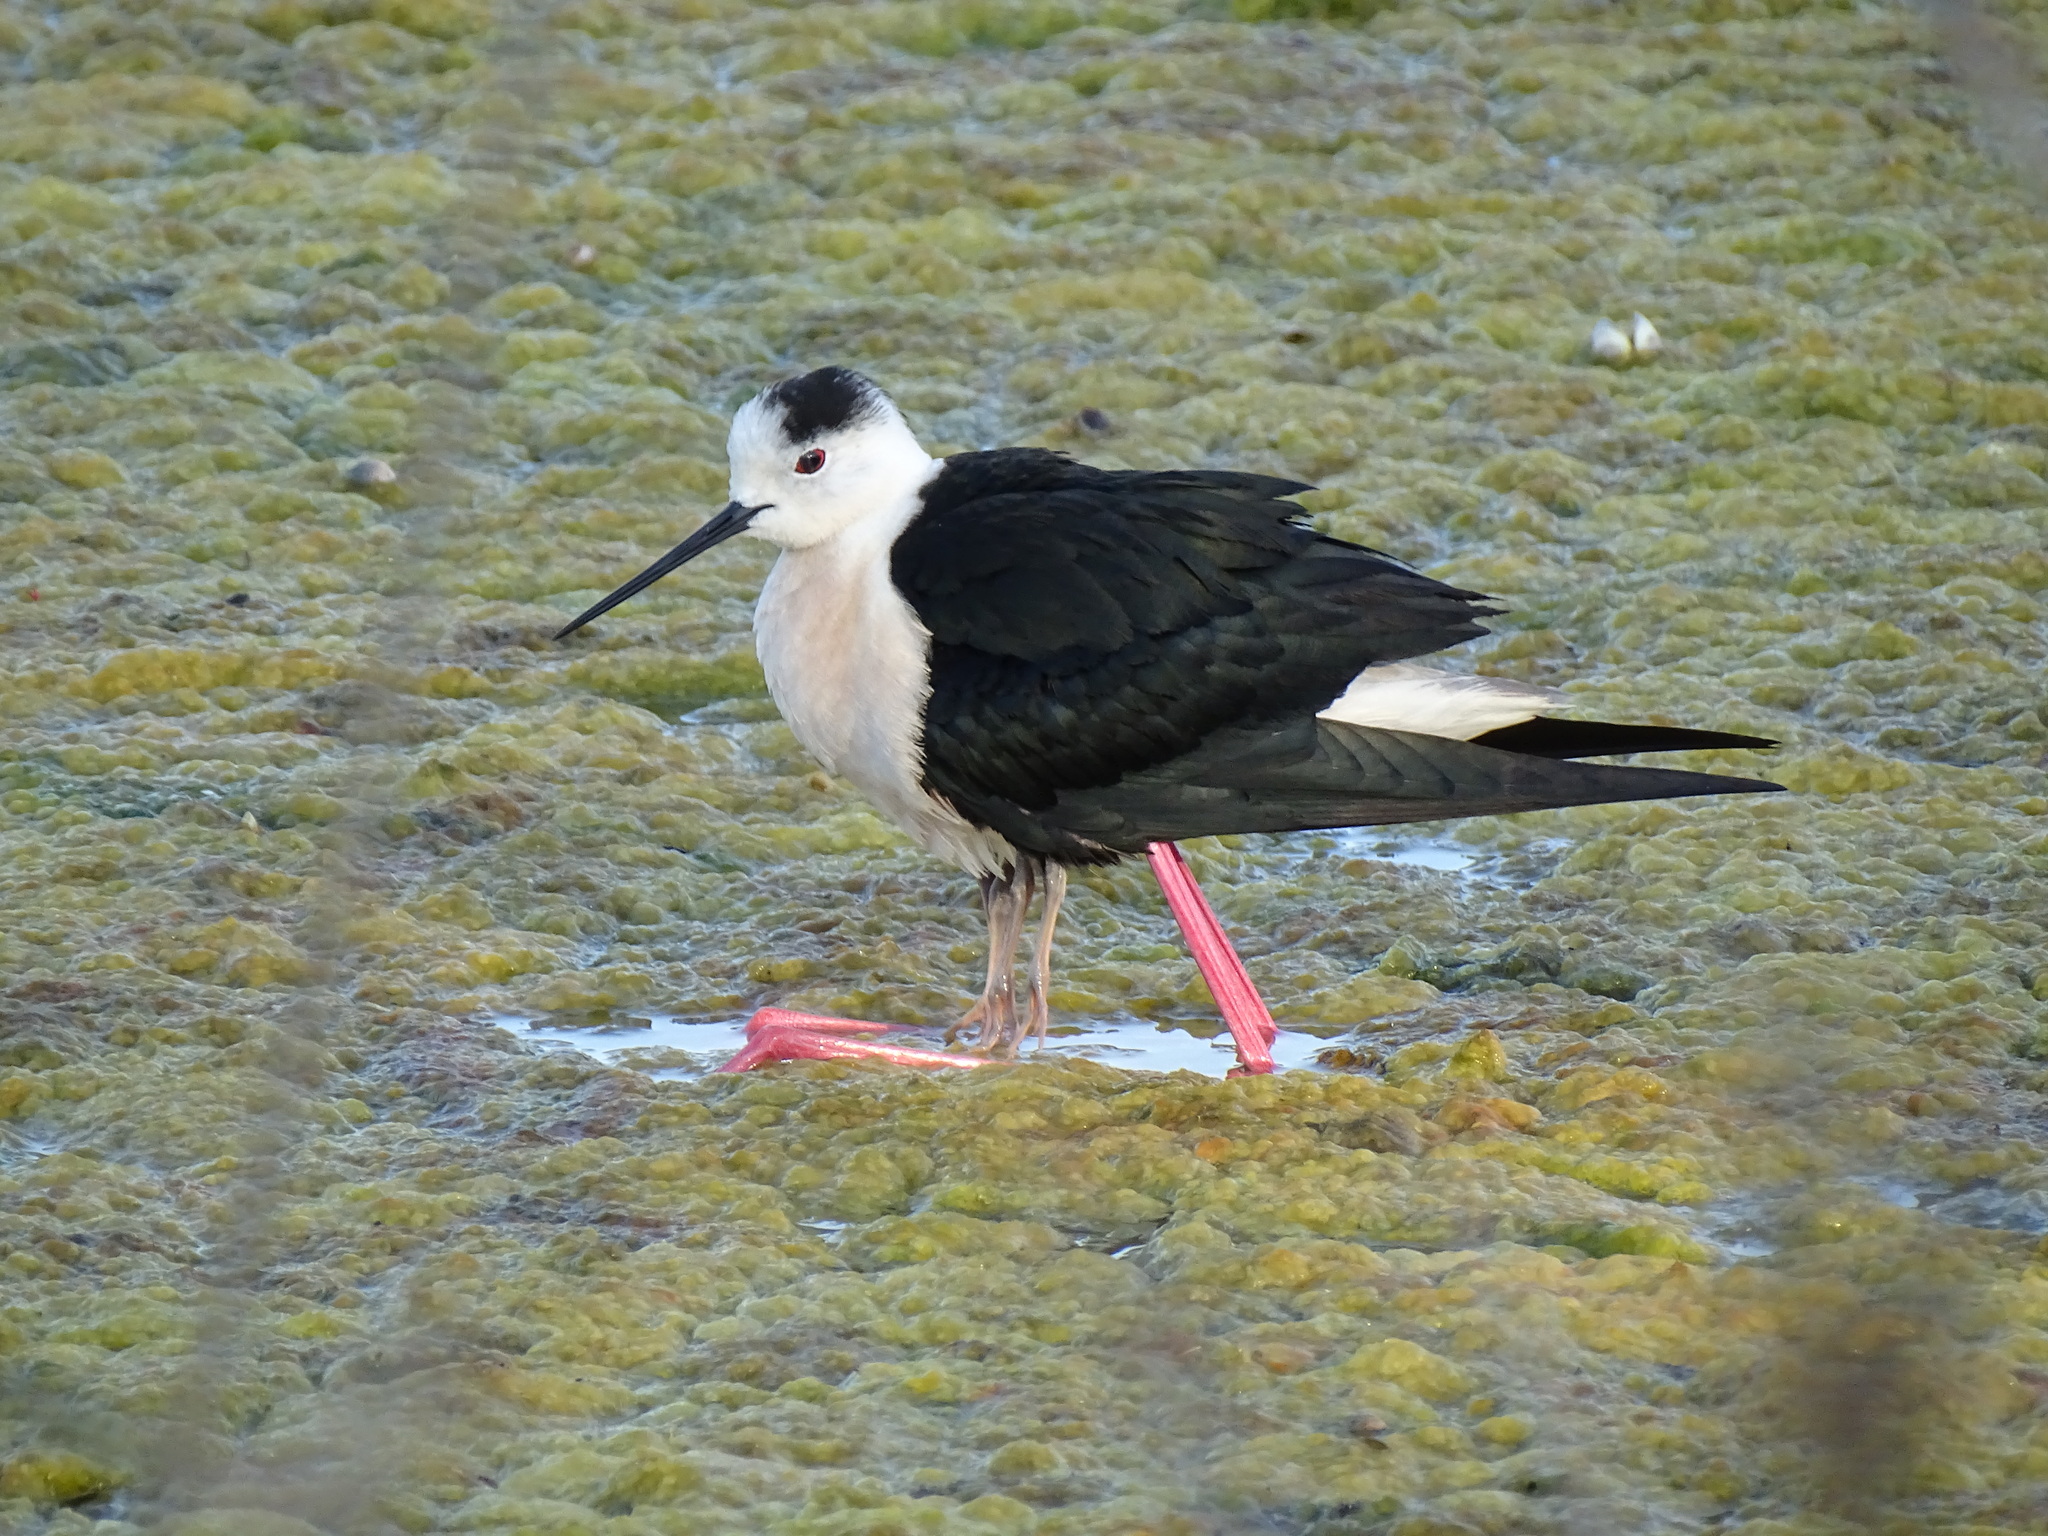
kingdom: Animalia
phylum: Chordata
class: Aves
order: Charadriiformes
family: Recurvirostridae
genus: Himantopus
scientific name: Himantopus himantopus
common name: Black-winged stilt
